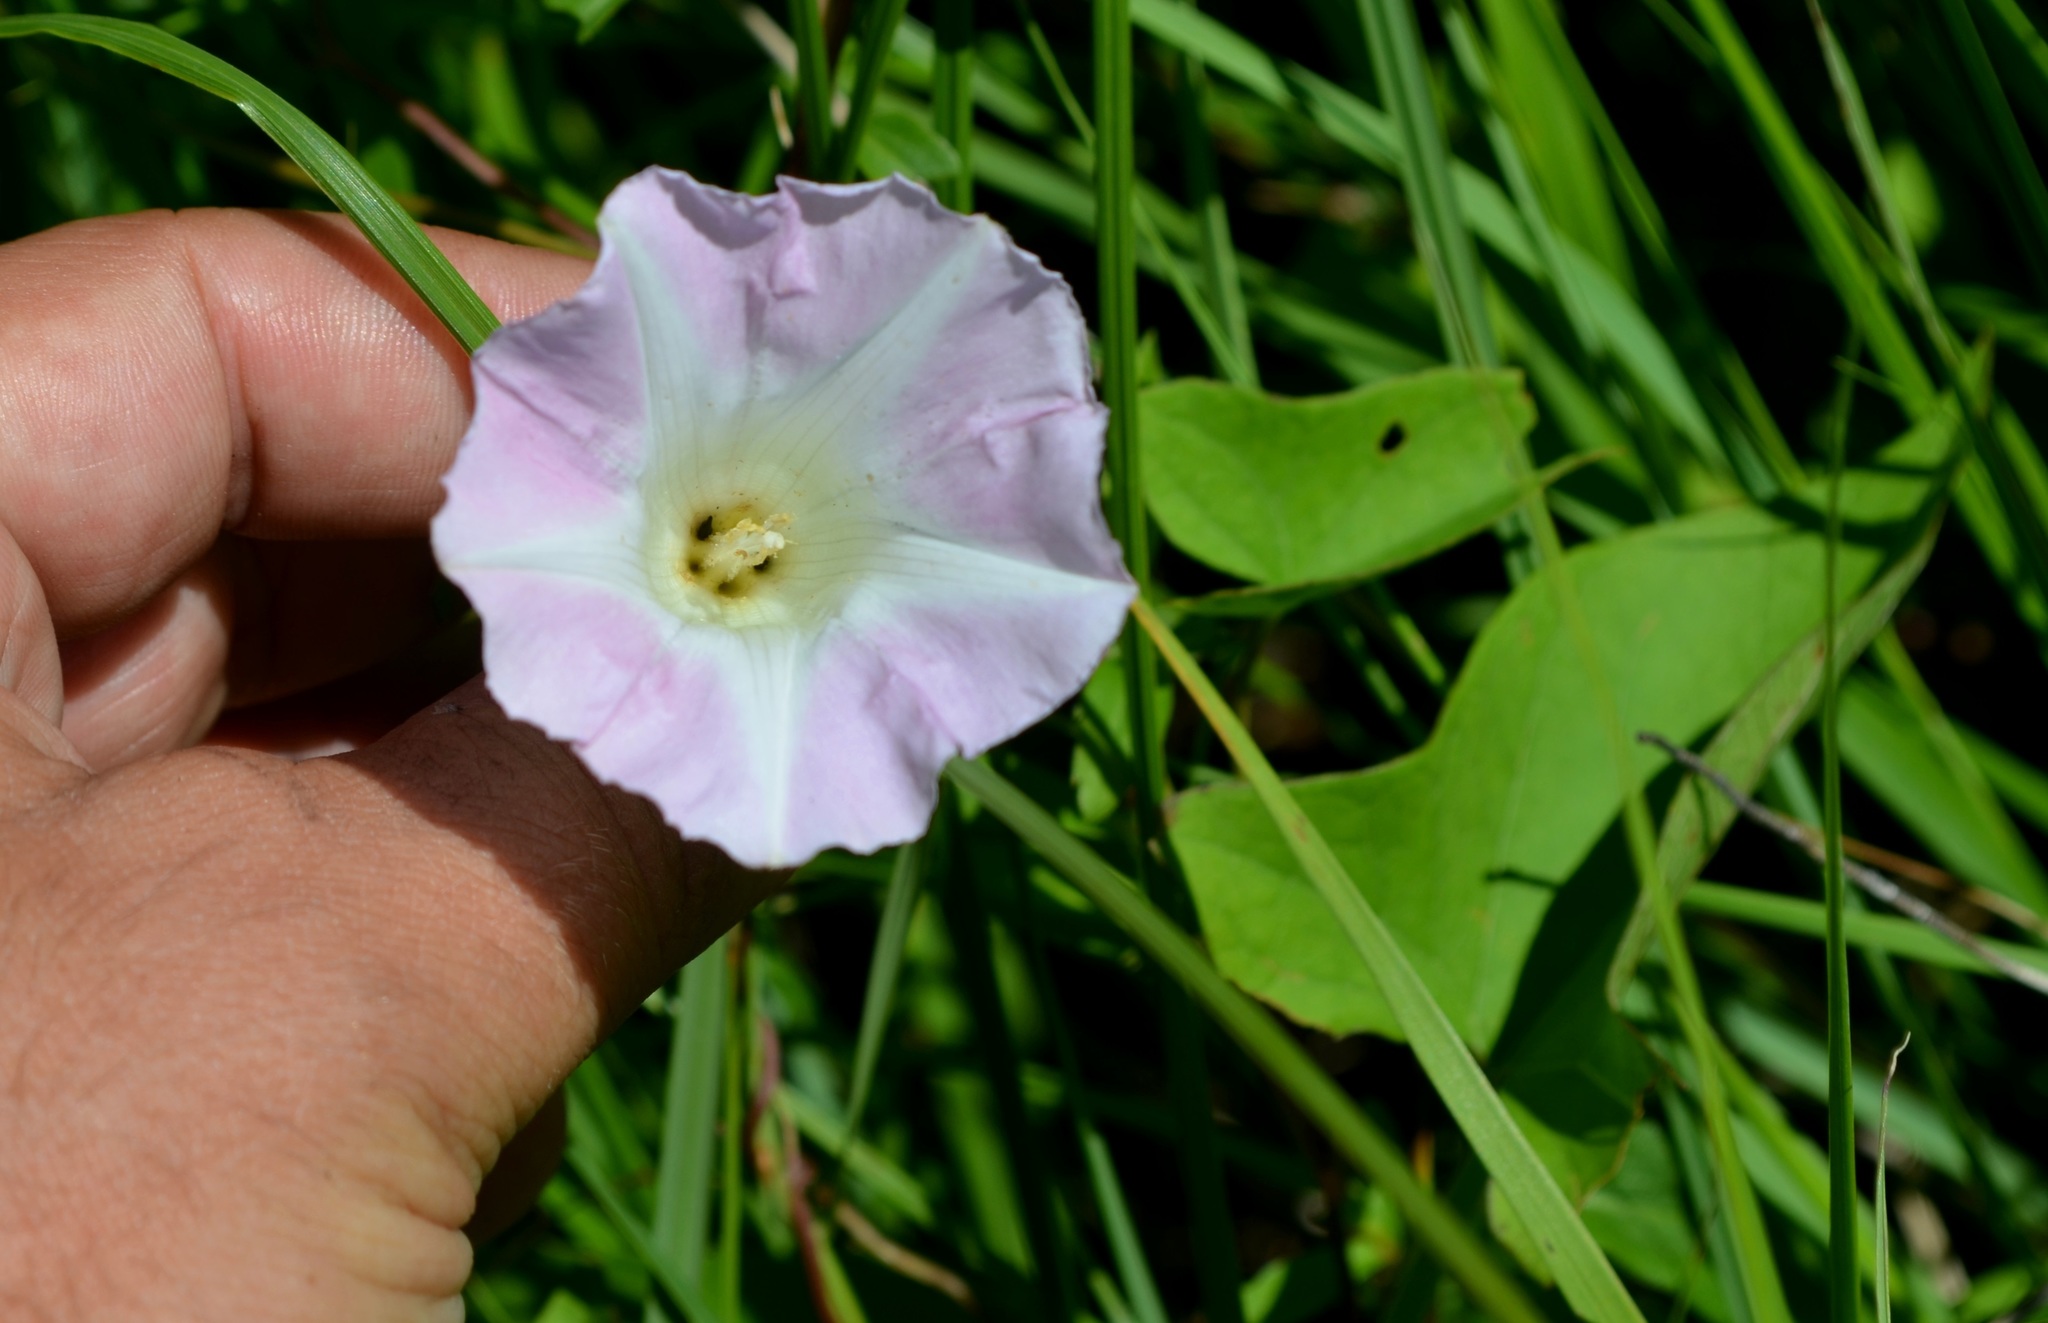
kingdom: Plantae
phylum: Tracheophyta
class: Magnoliopsida
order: Solanales
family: Convolvulaceae
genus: Calystegia
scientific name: Calystegia sepium
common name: Hedge bindweed
